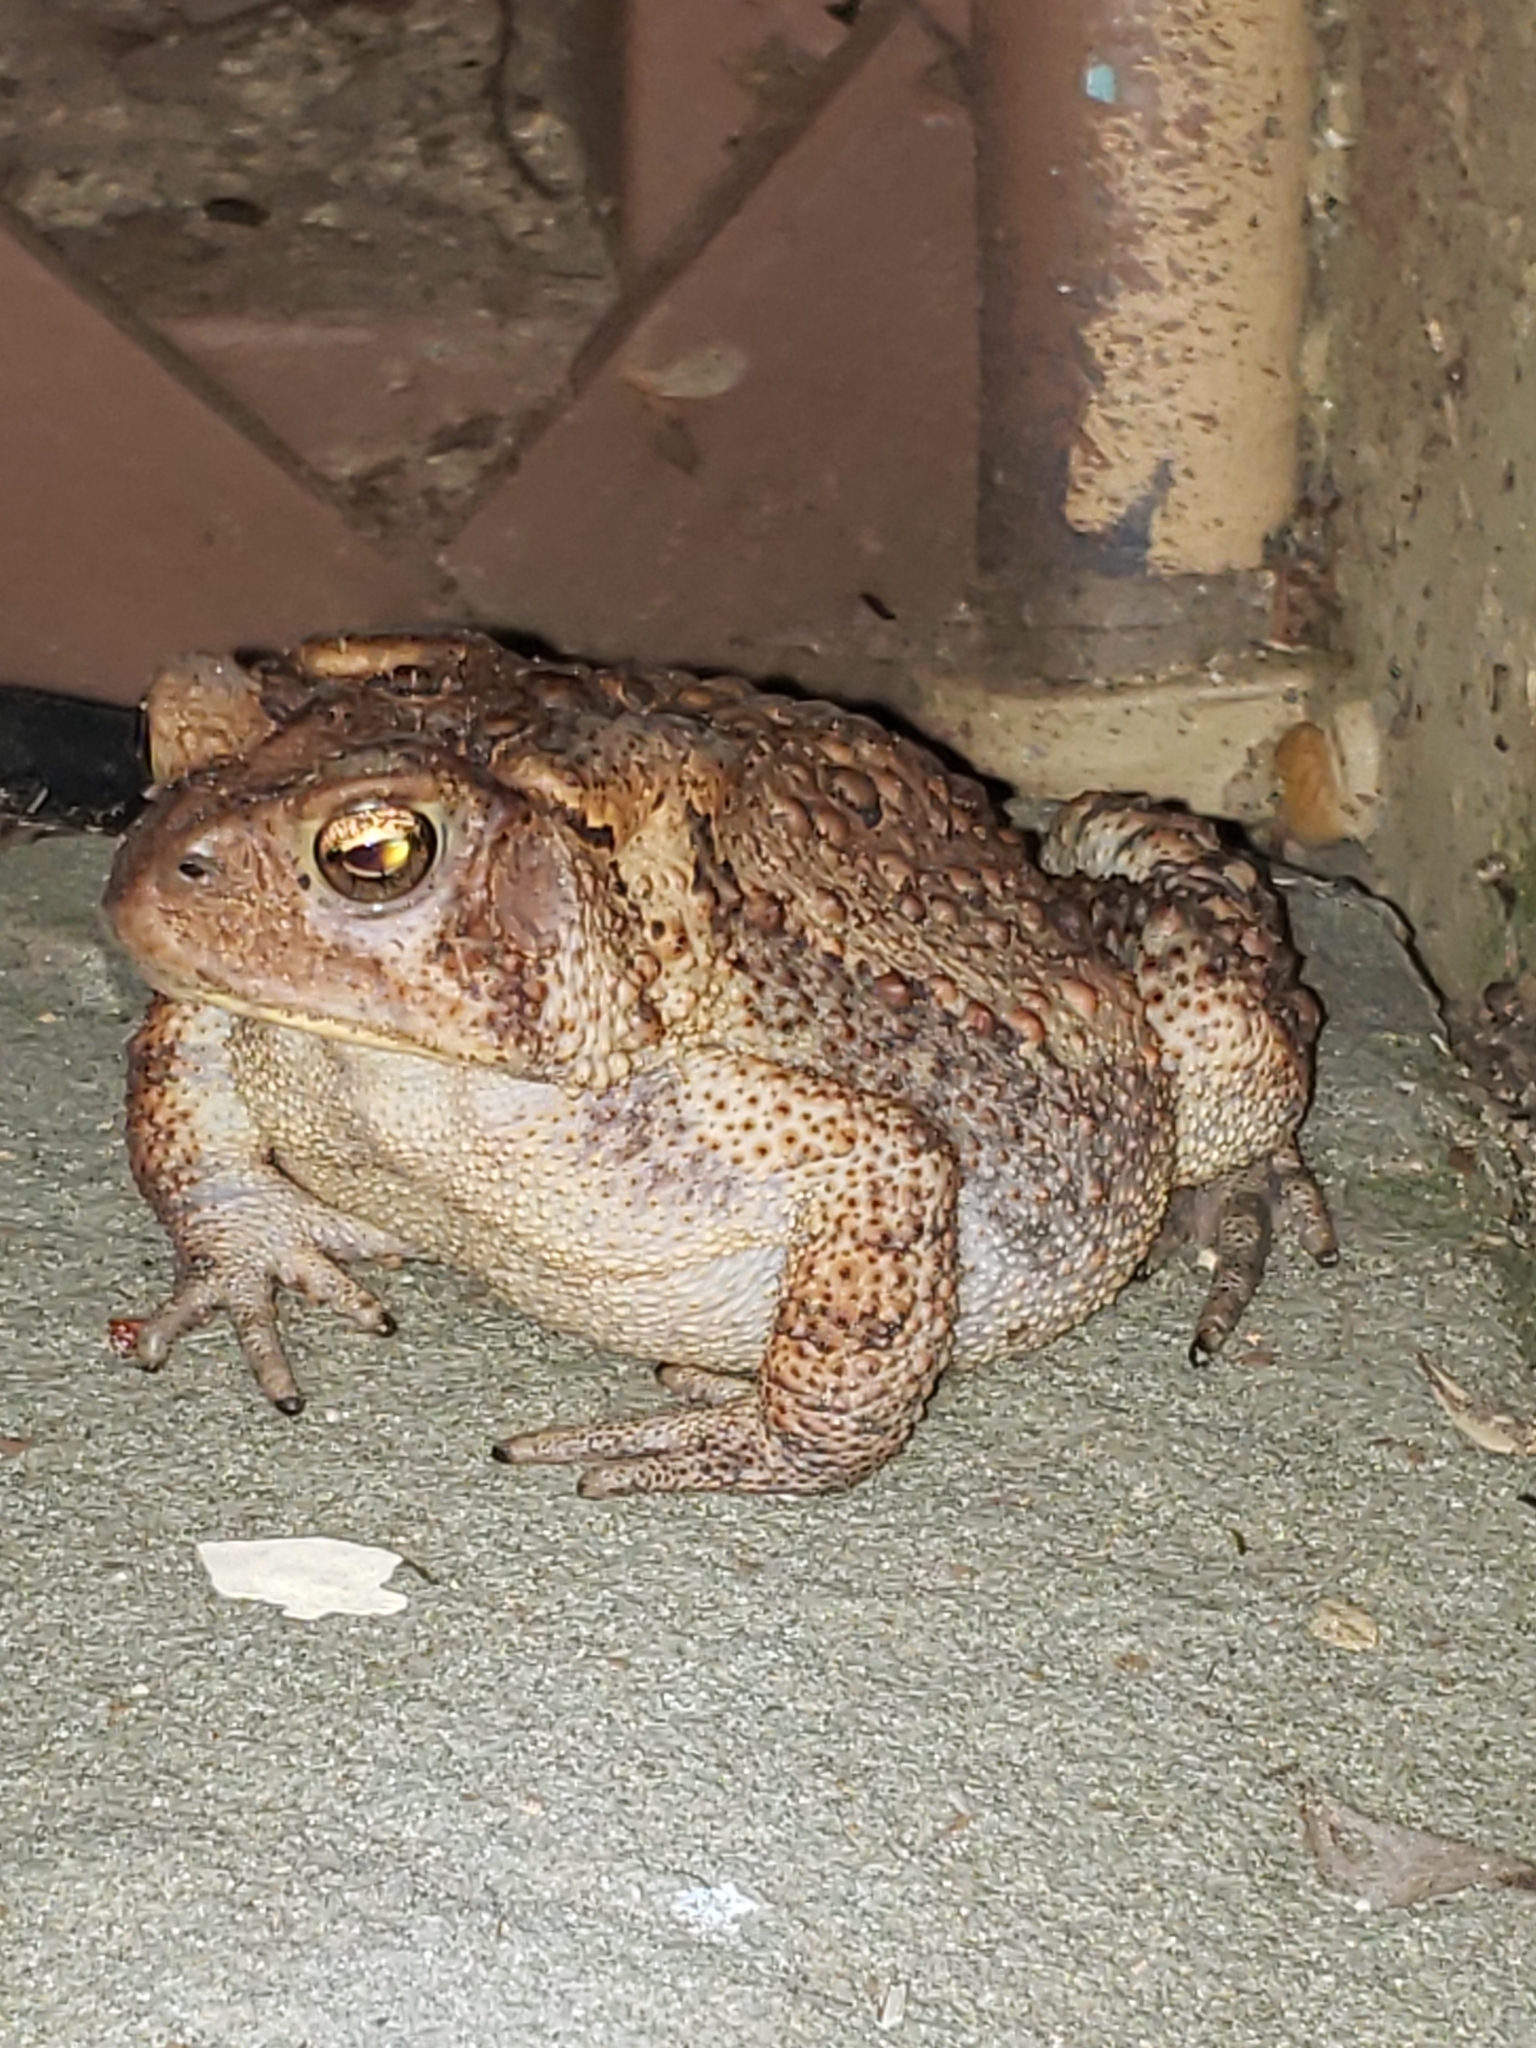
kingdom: Animalia
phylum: Chordata
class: Amphibia
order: Anura
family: Bufonidae
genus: Anaxyrus
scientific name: Anaxyrus americanus
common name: American toad
